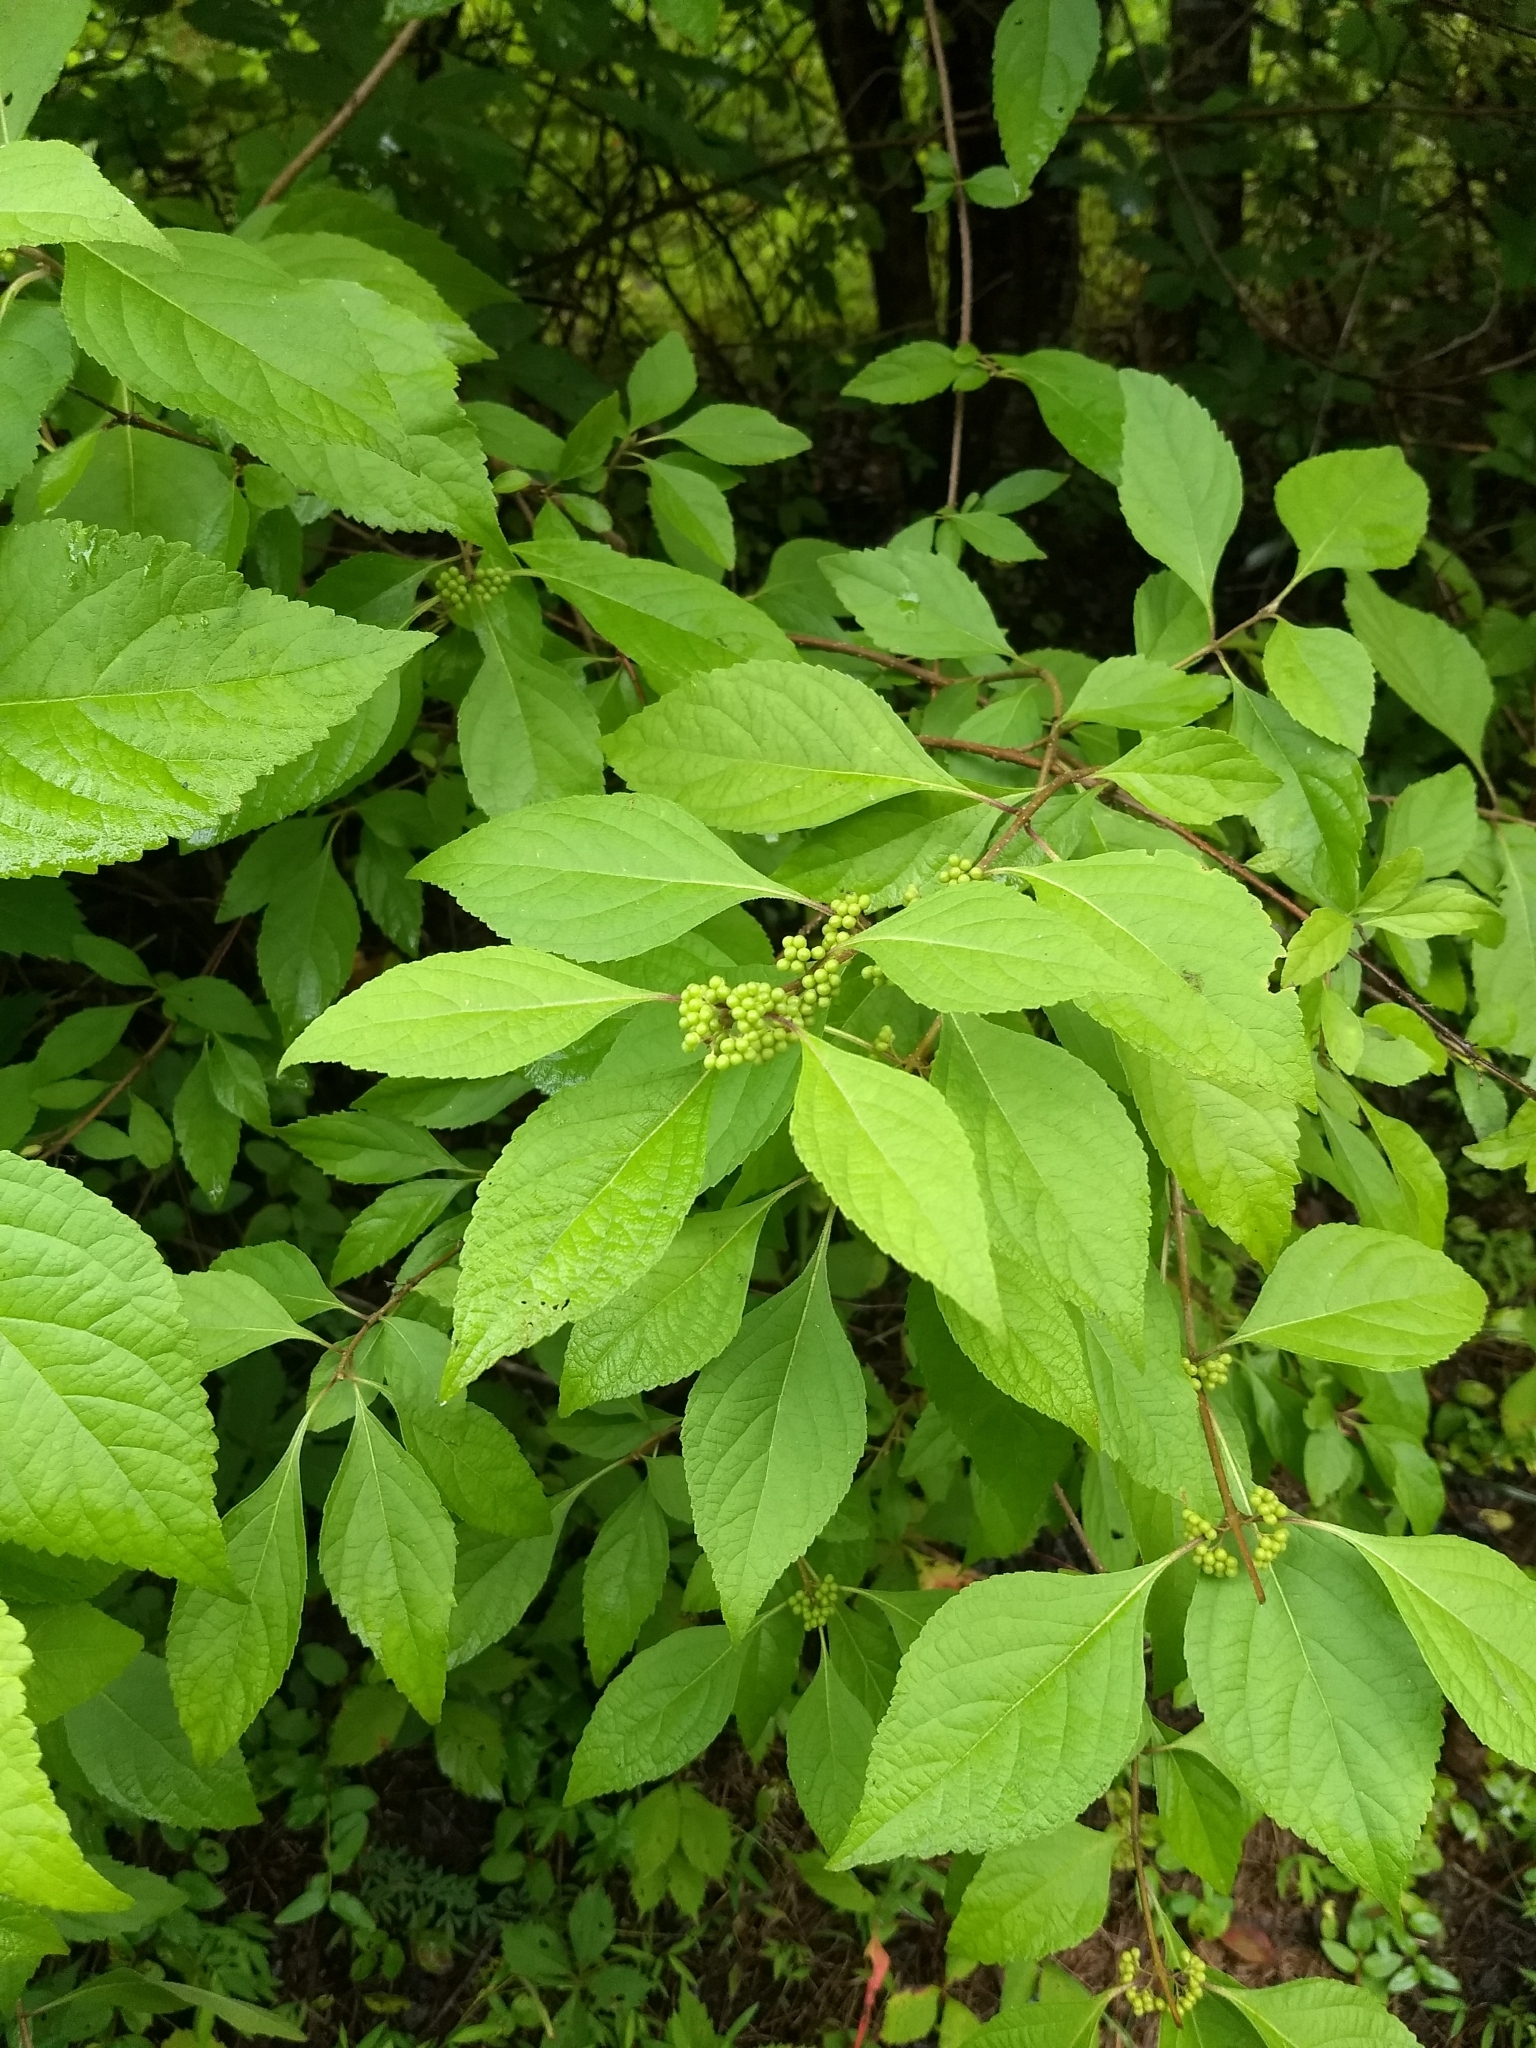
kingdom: Plantae
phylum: Tracheophyta
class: Magnoliopsida
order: Lamiales
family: Lamiaceae
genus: Callicarpa
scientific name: Callicarpa americana
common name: American beautyberry
